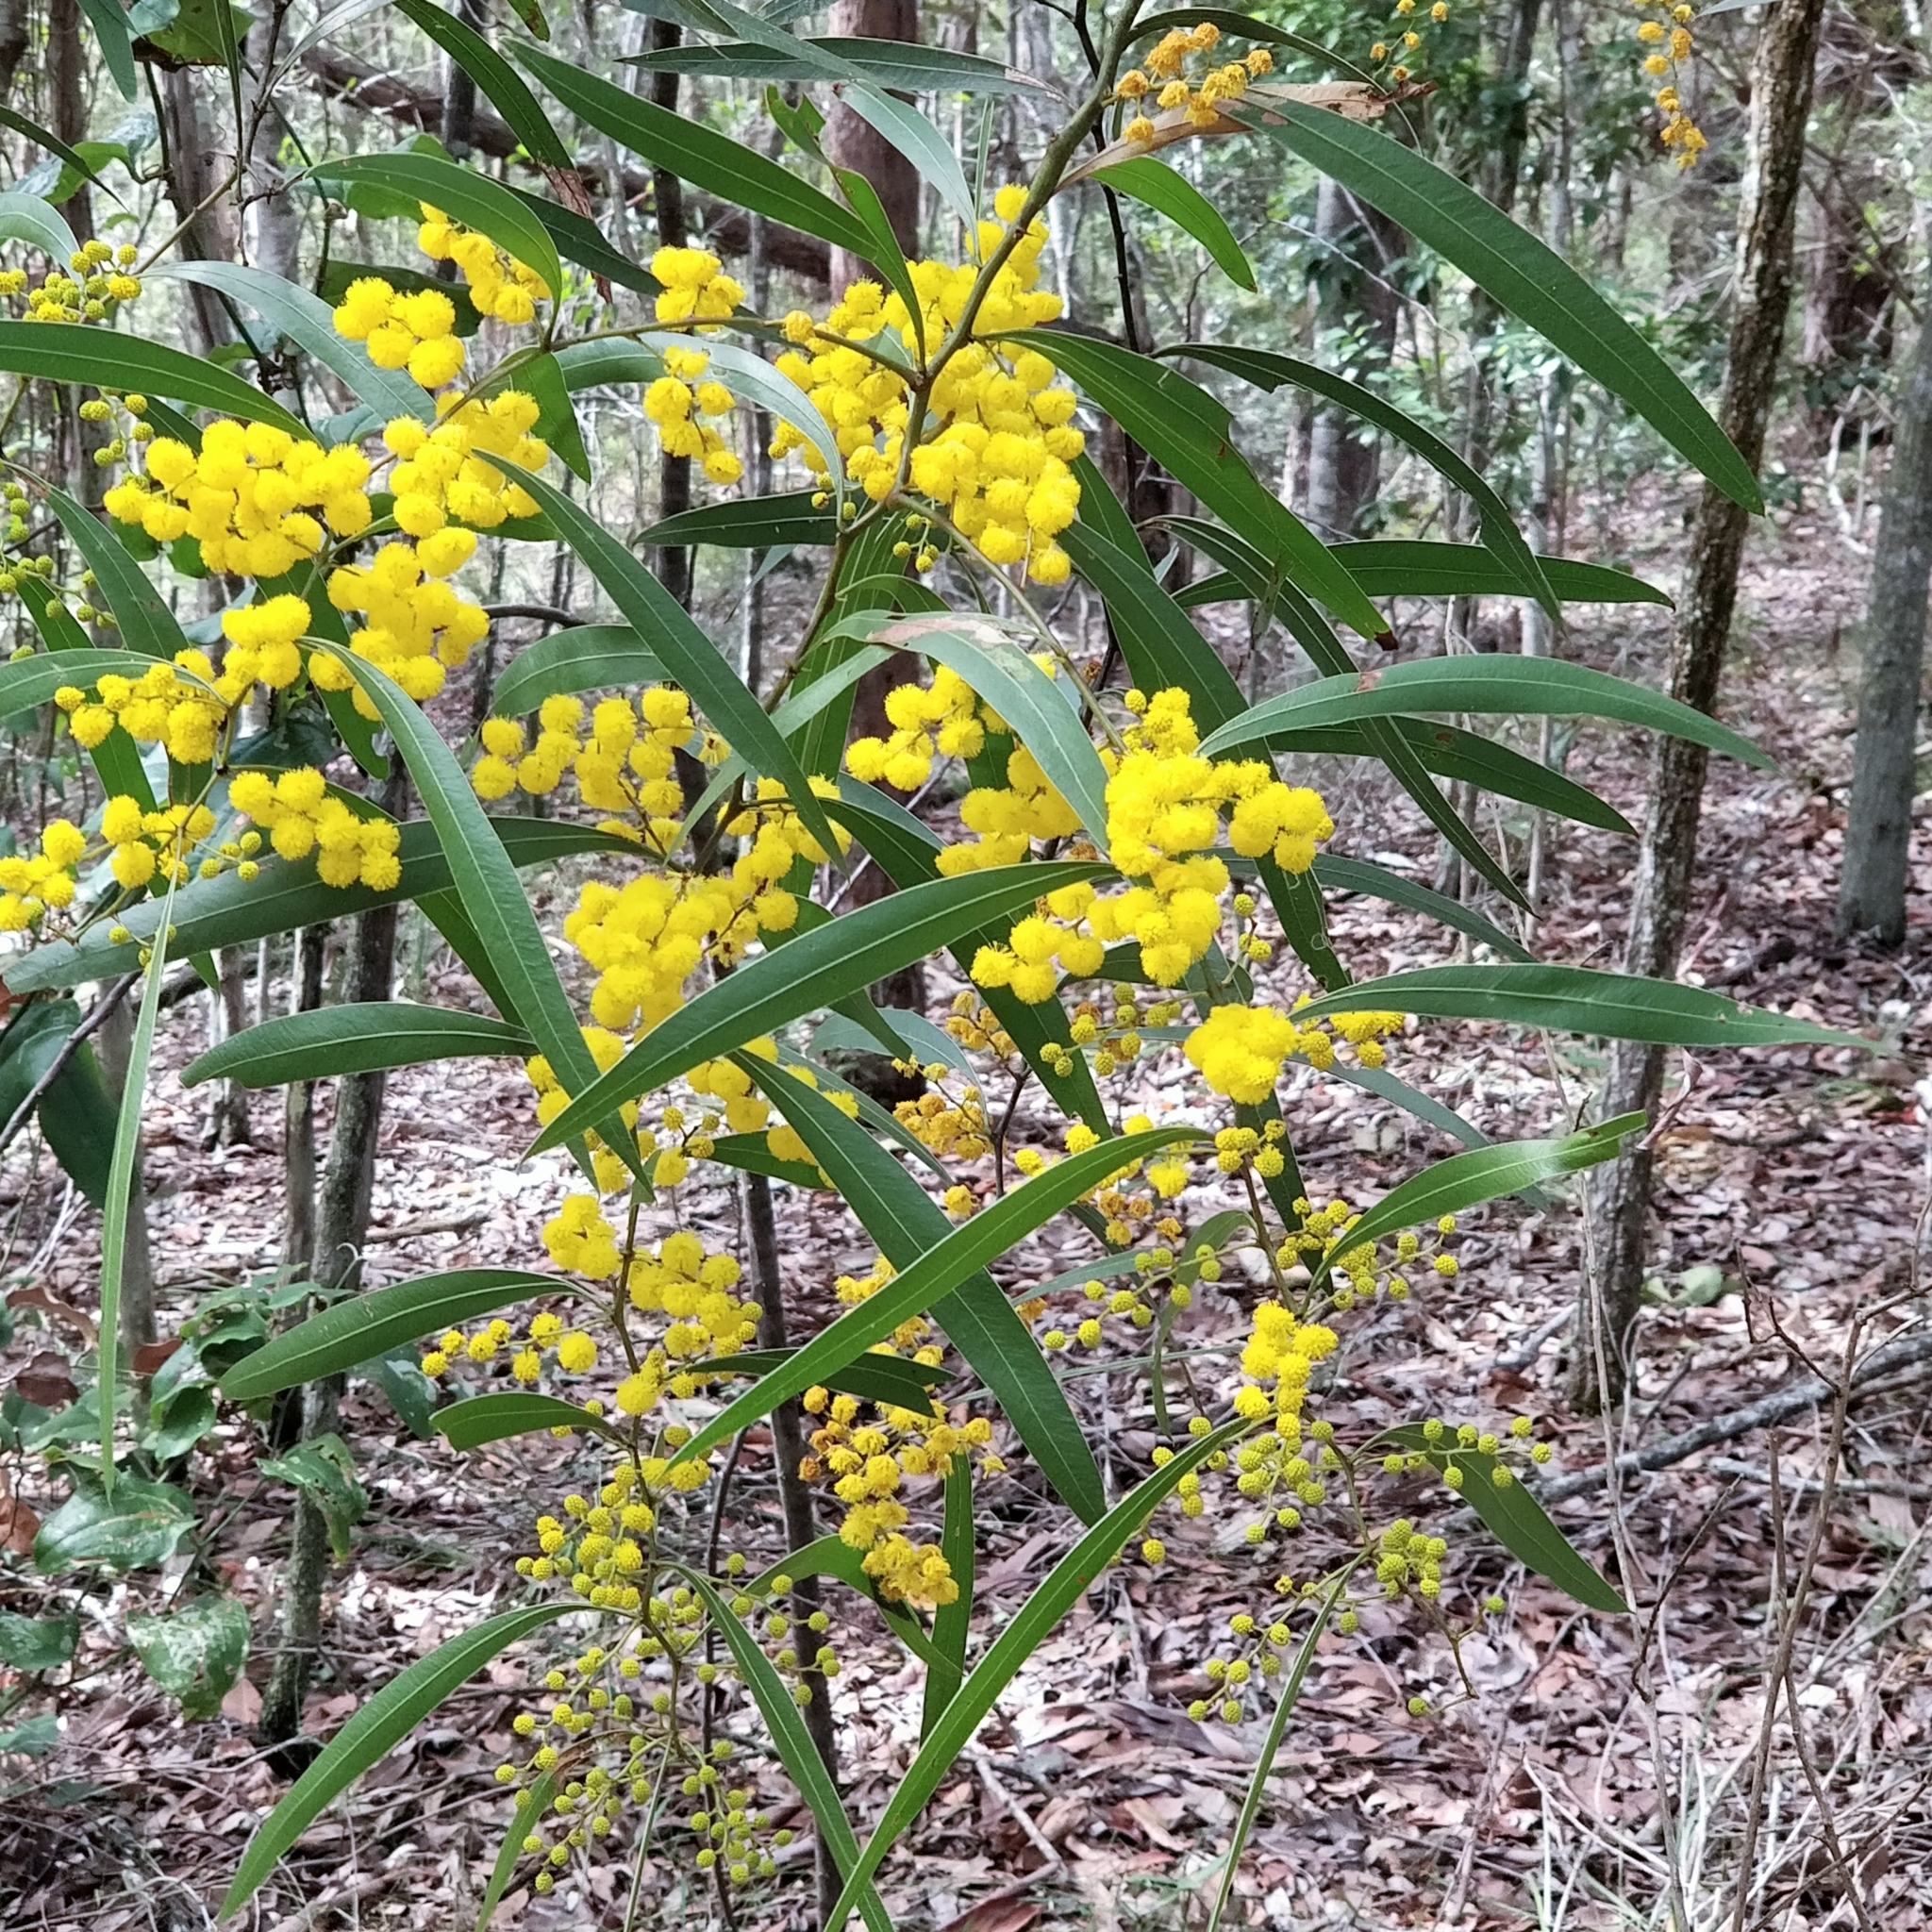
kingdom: Plantae
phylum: Tracheophyta
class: Magnoliopsida
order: Fabales
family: Fabaceae
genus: Acacia
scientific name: Acacia macradenia
